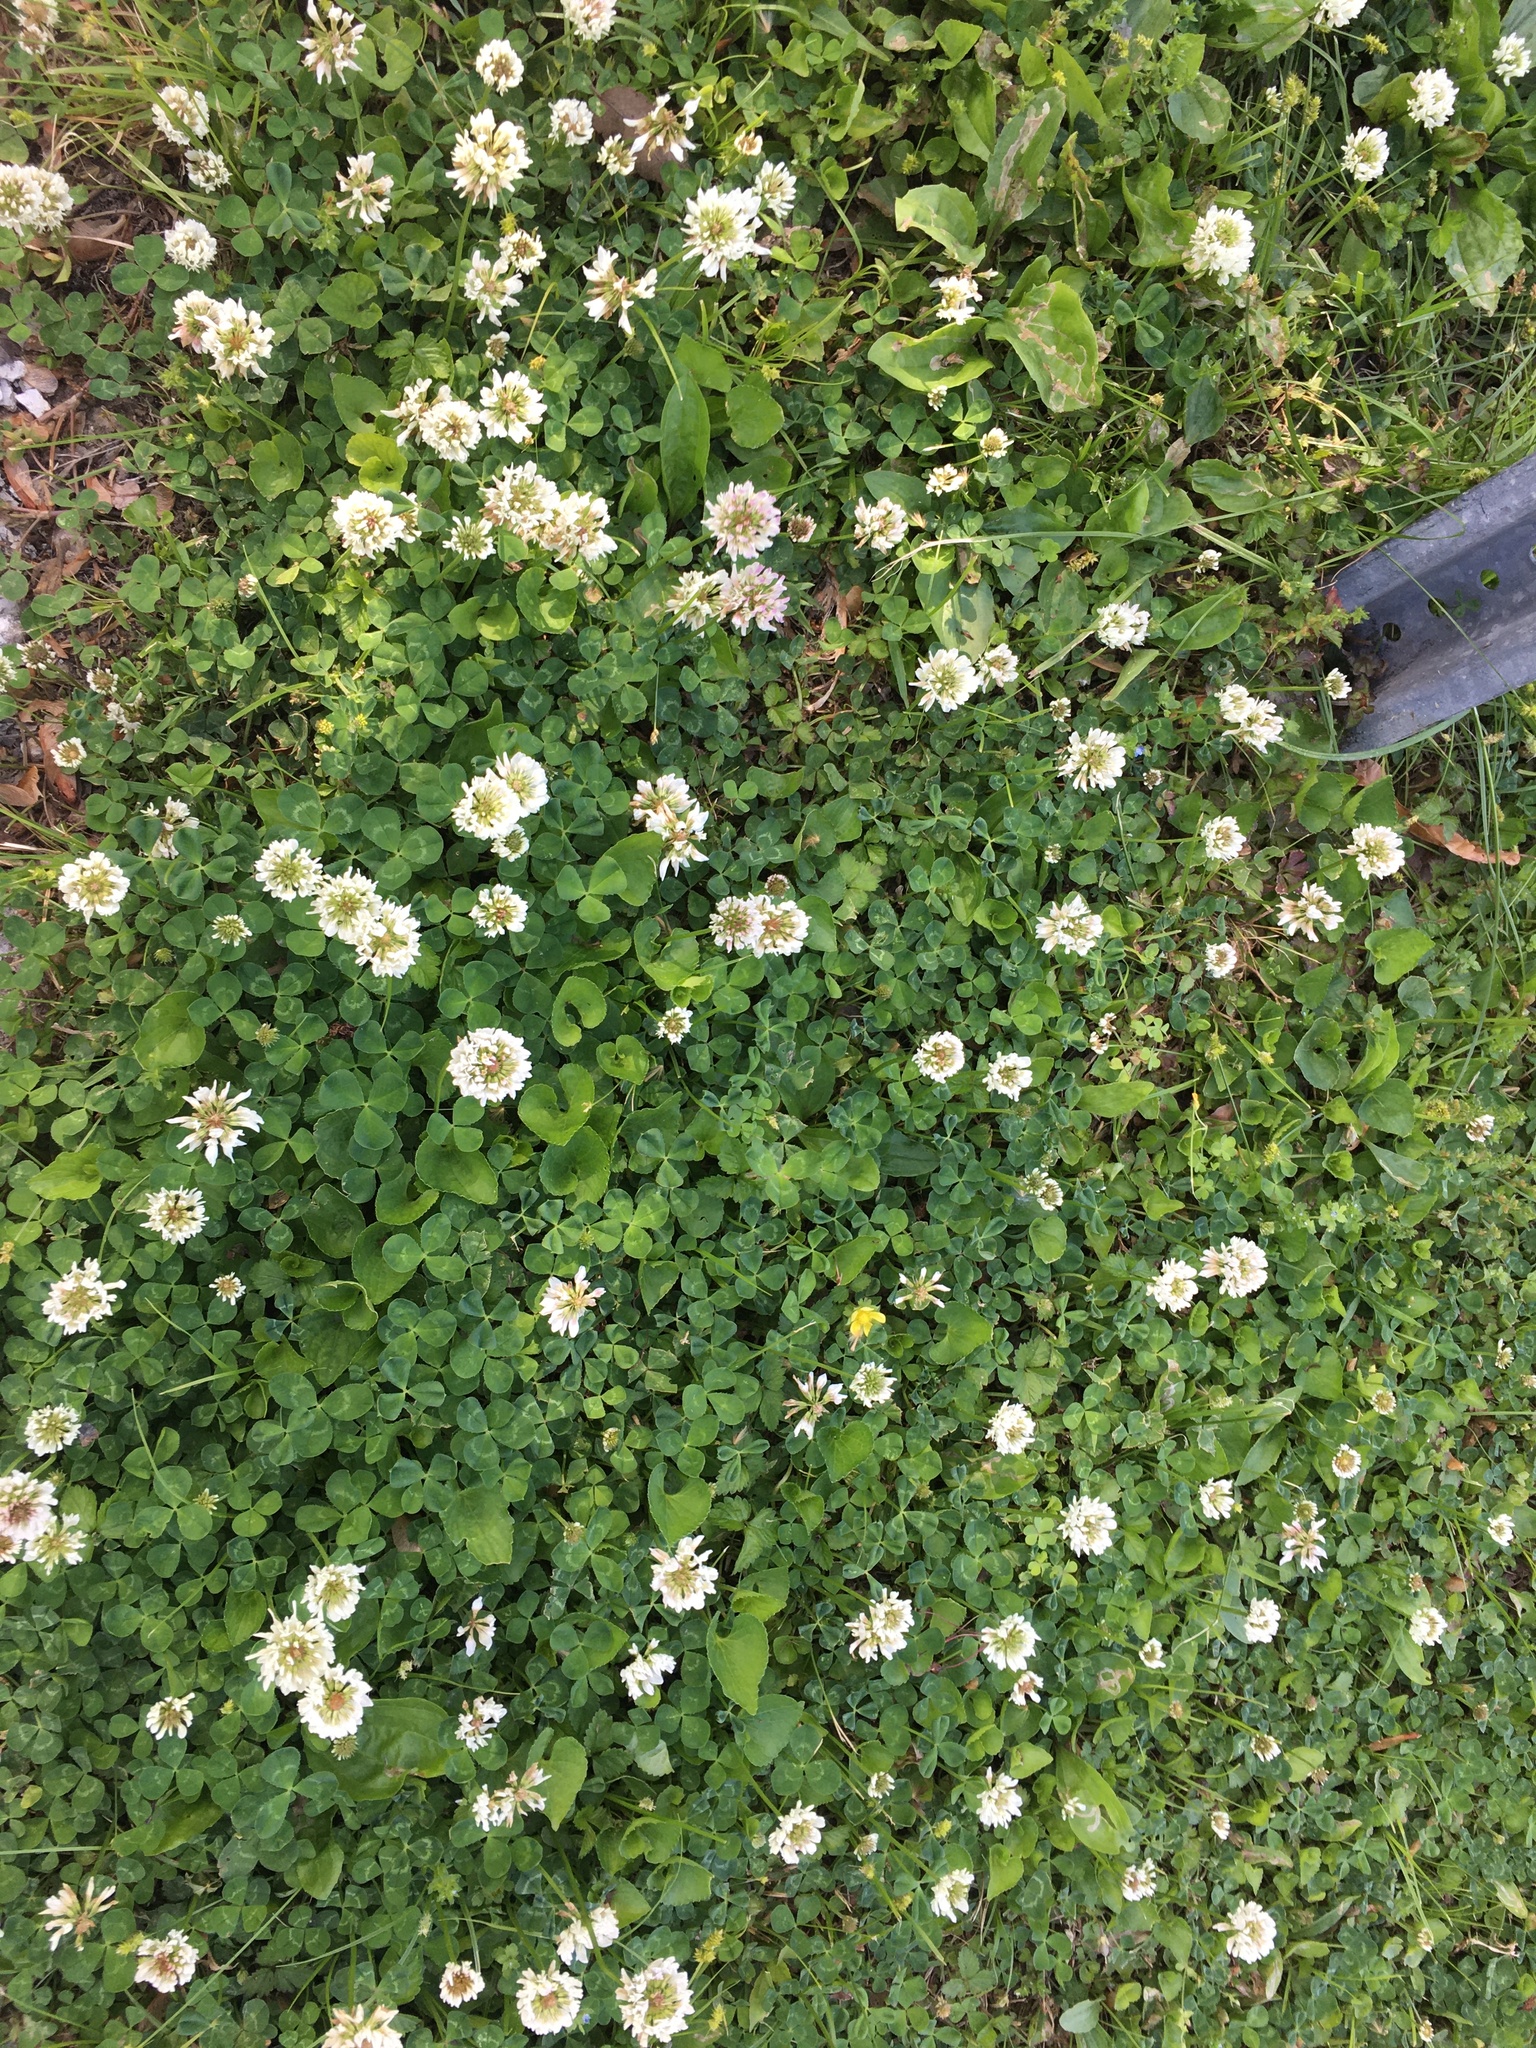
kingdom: Plantae
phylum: Tracheophyta
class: Magnoliopsida
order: Fabales
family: Fabaceae
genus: Trifolium
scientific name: Trifolium repens
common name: White clover
